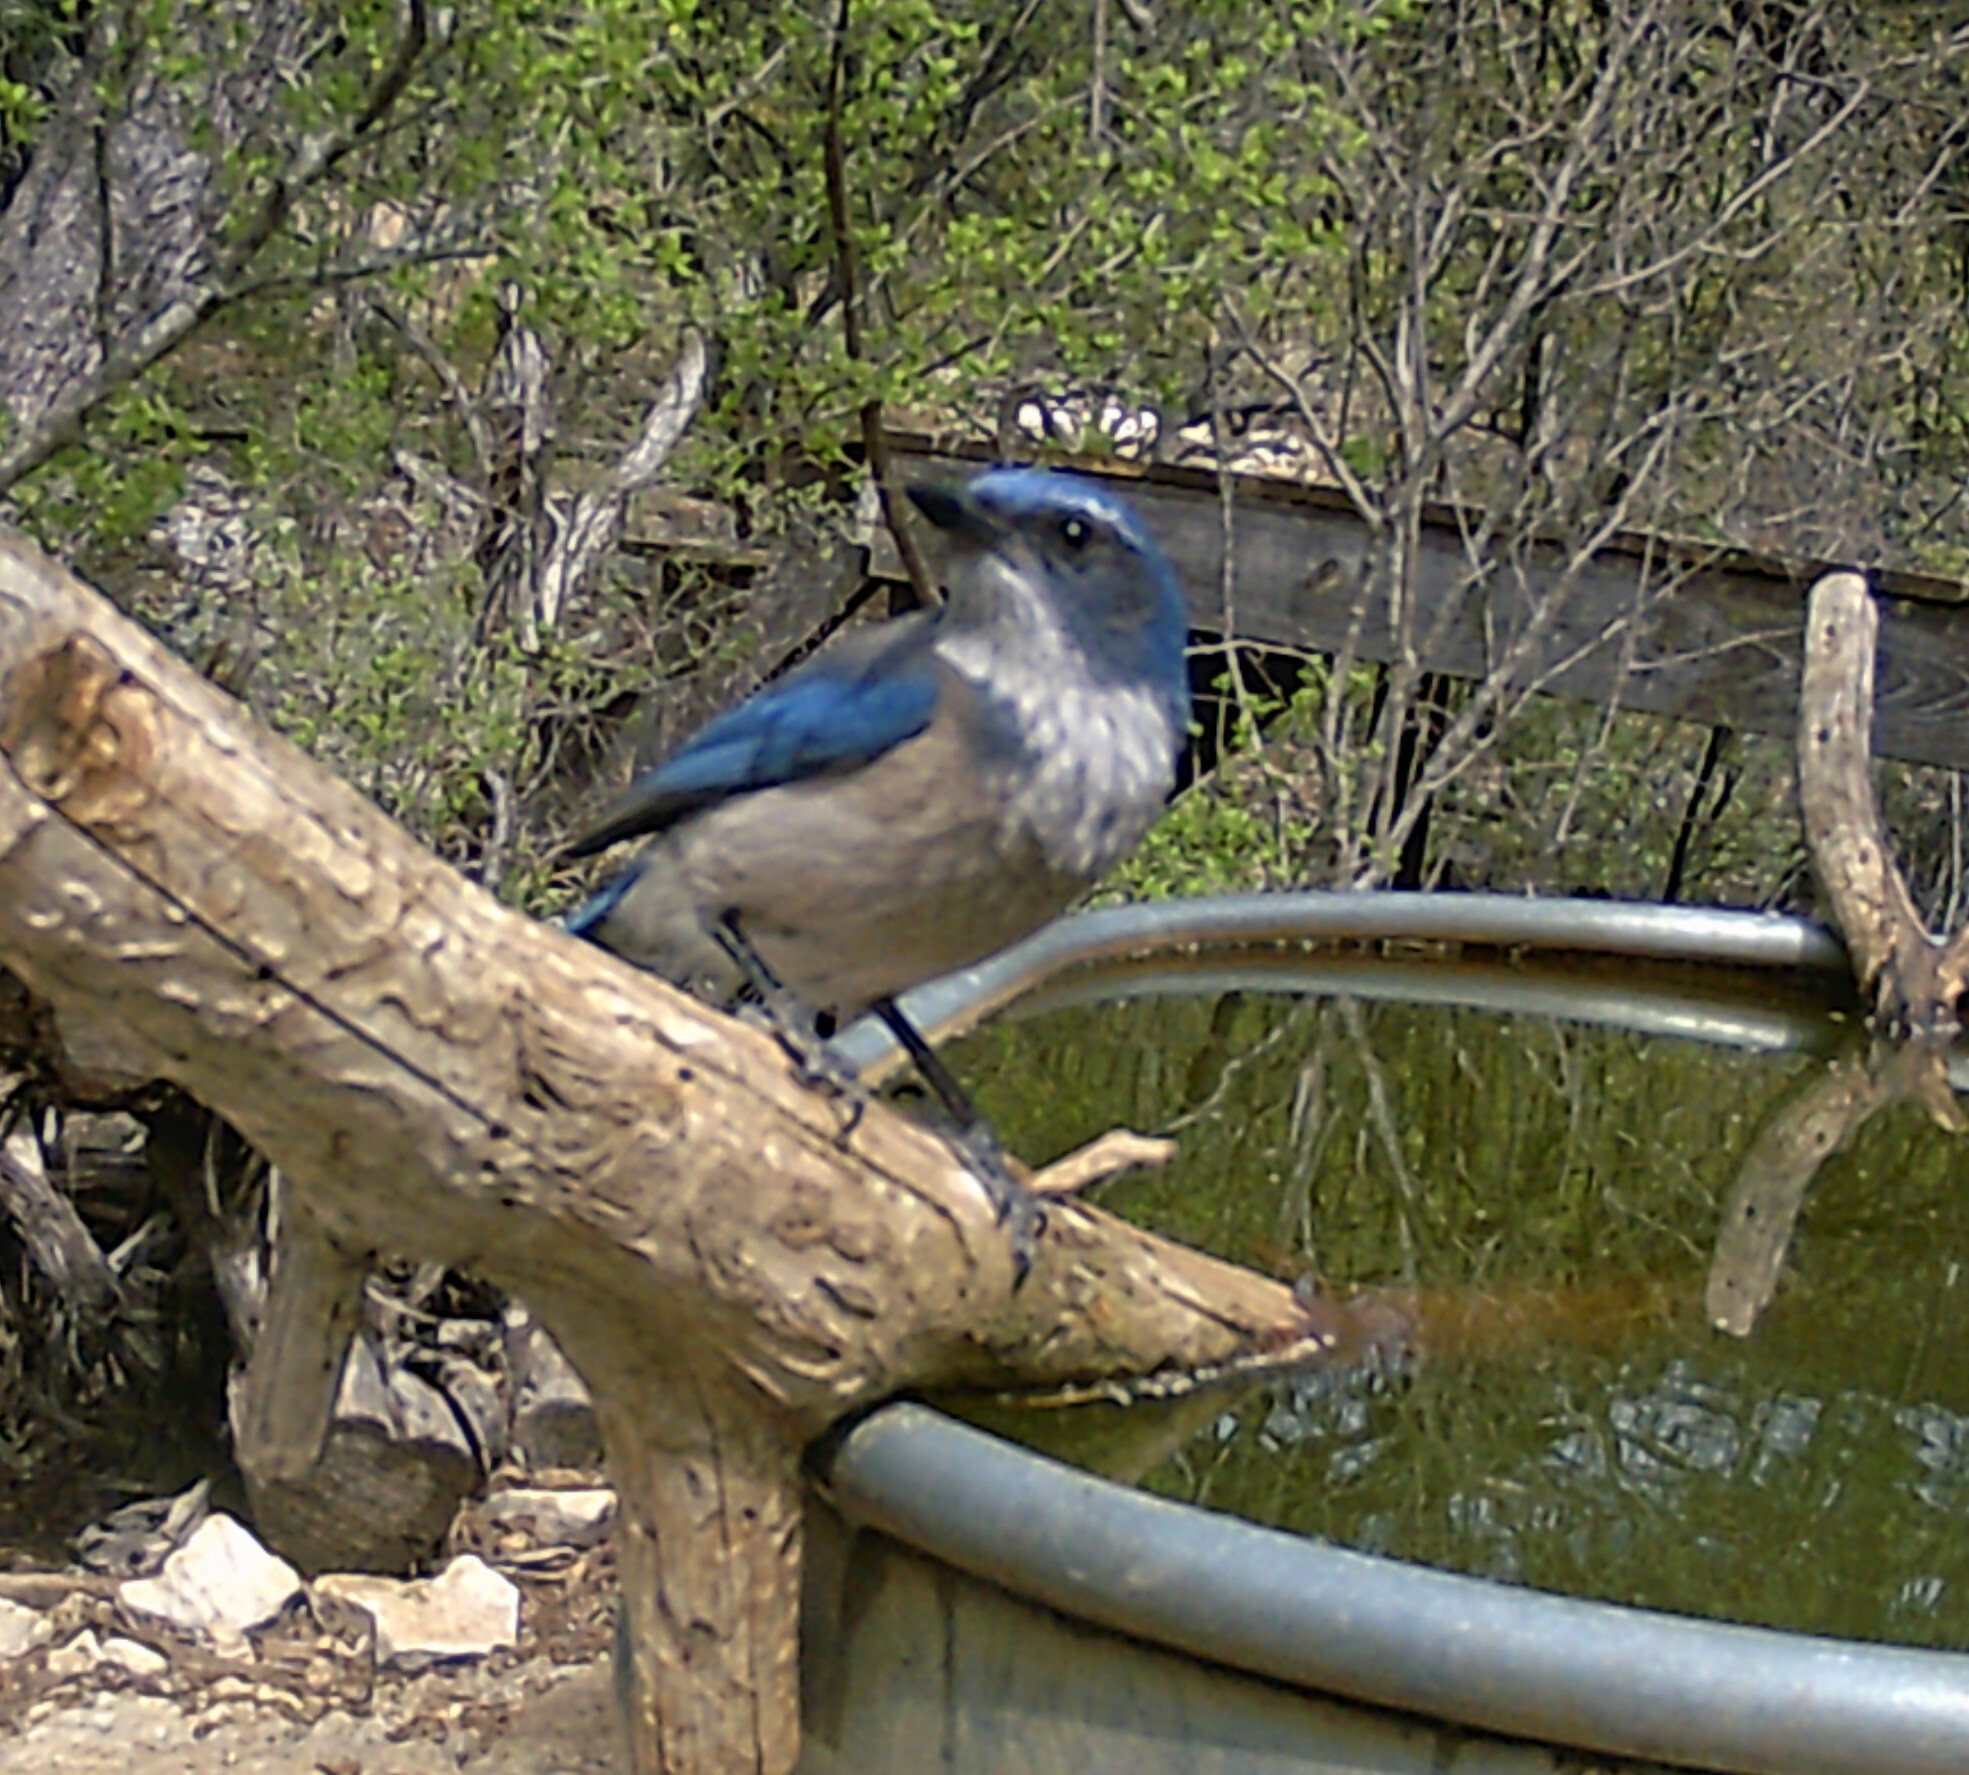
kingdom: Animalia
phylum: Chordata
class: Aves
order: Passeriformes
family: Corvidae
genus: Aphelocoma
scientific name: Aphelocoma woodhouseii
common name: Woodhouse's scrub-jay
